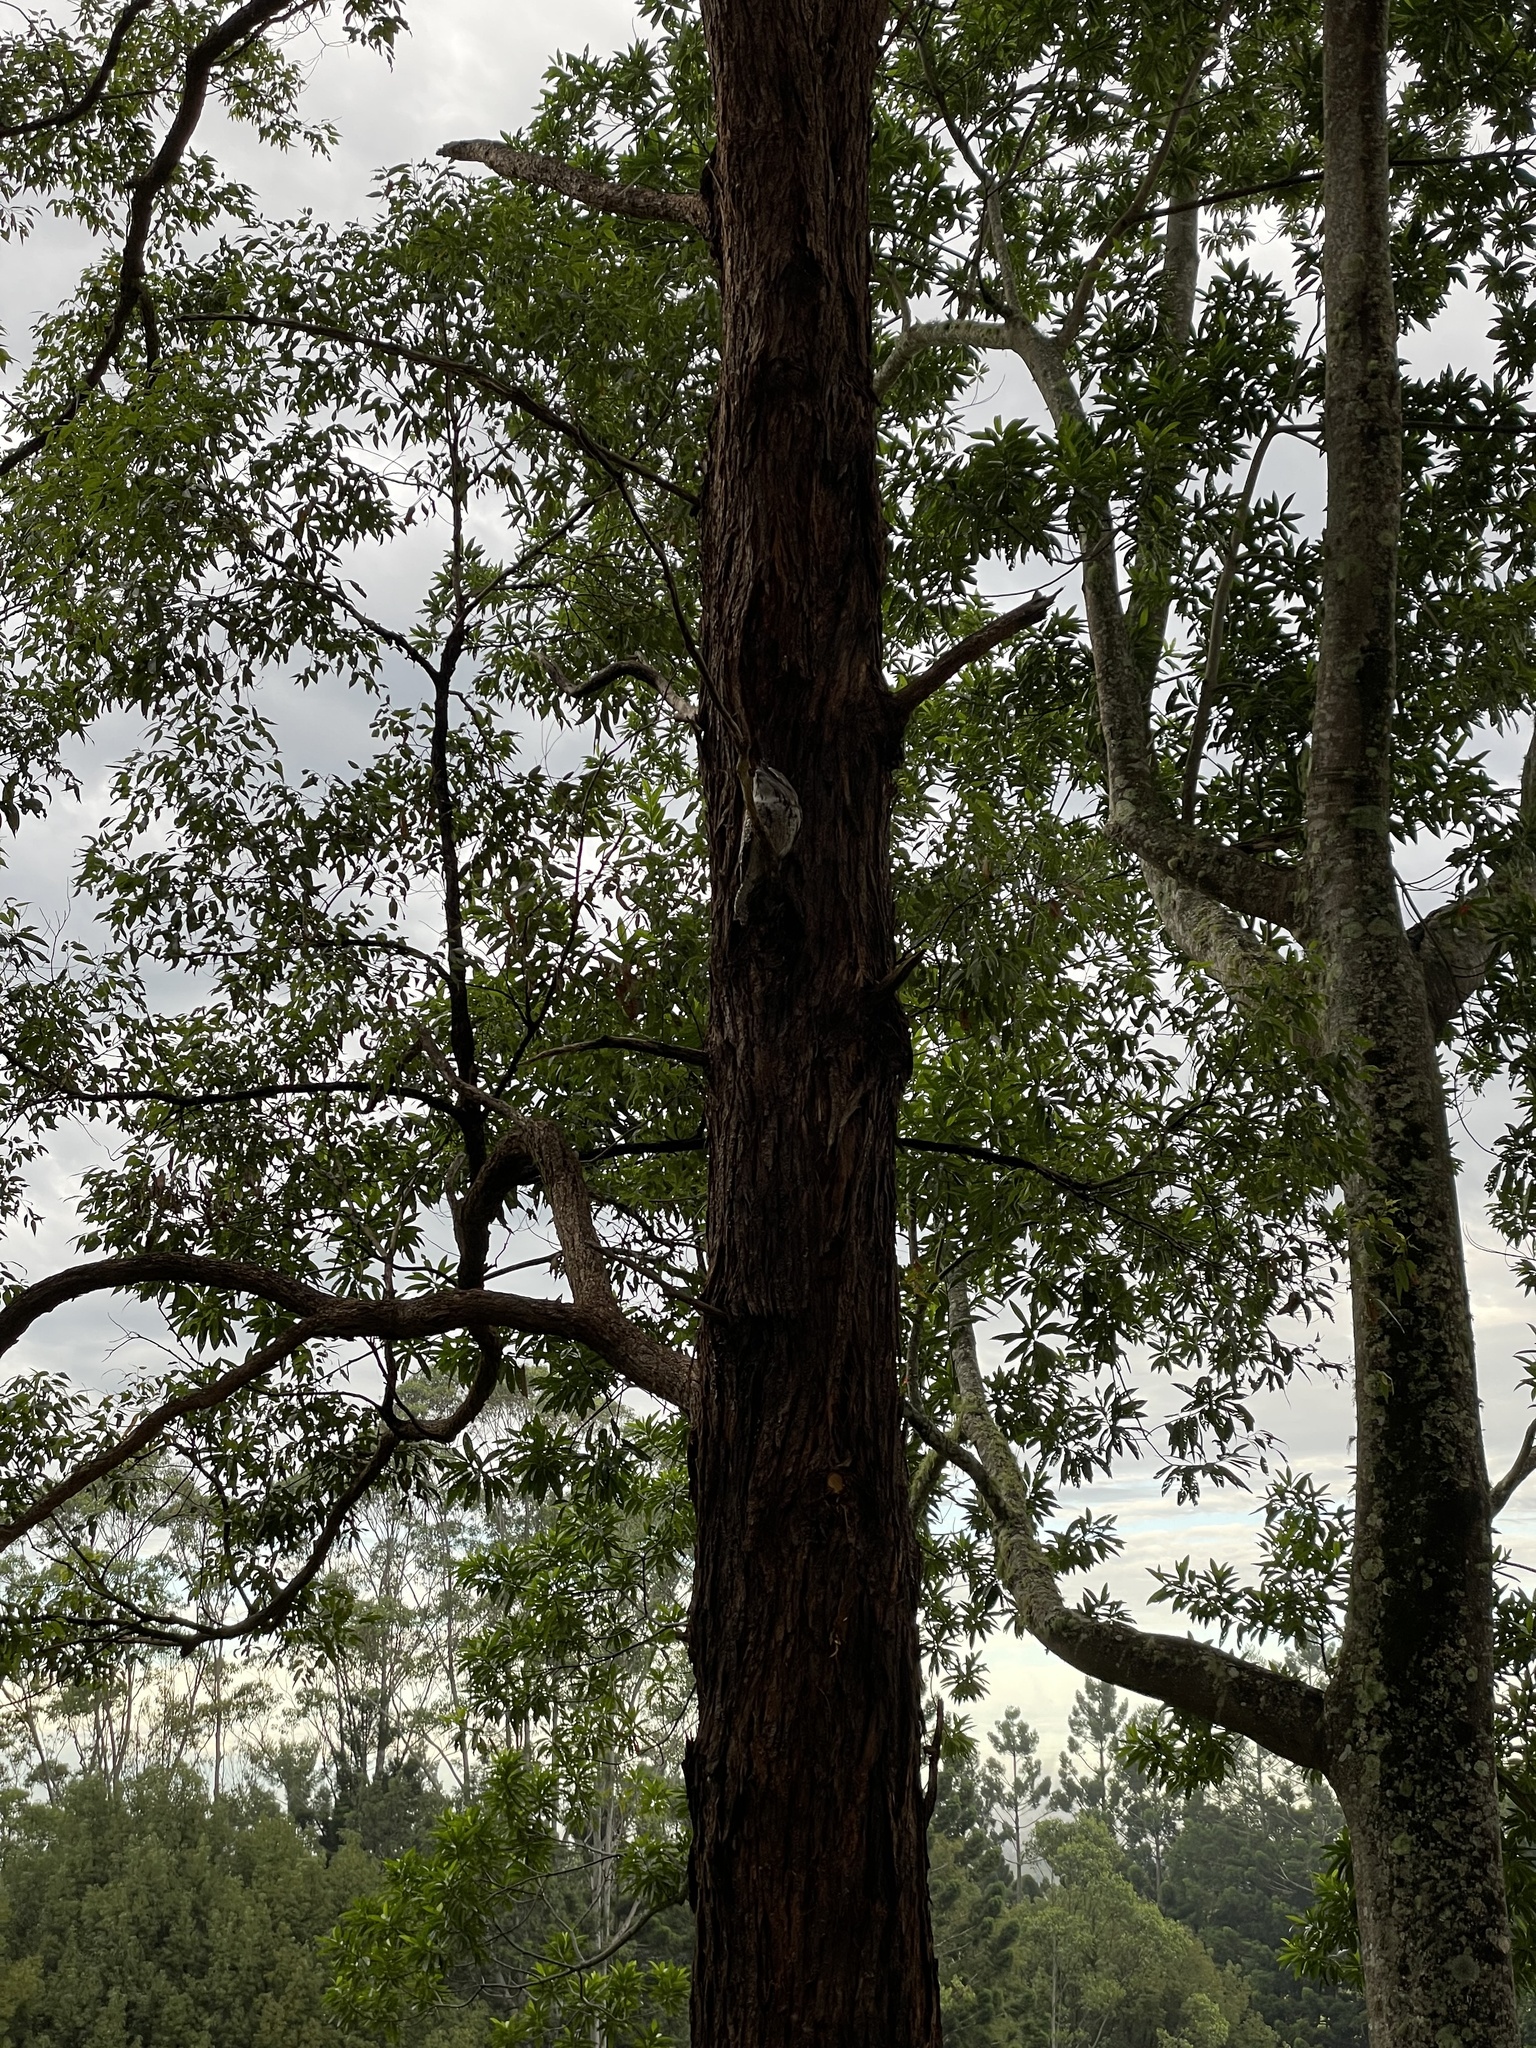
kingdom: Animalia
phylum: Chordata
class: Aves
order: Caprimulgiformes
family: Podargidae
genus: Podargus
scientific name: Podargus strigoides
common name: Tawny frogmouth
